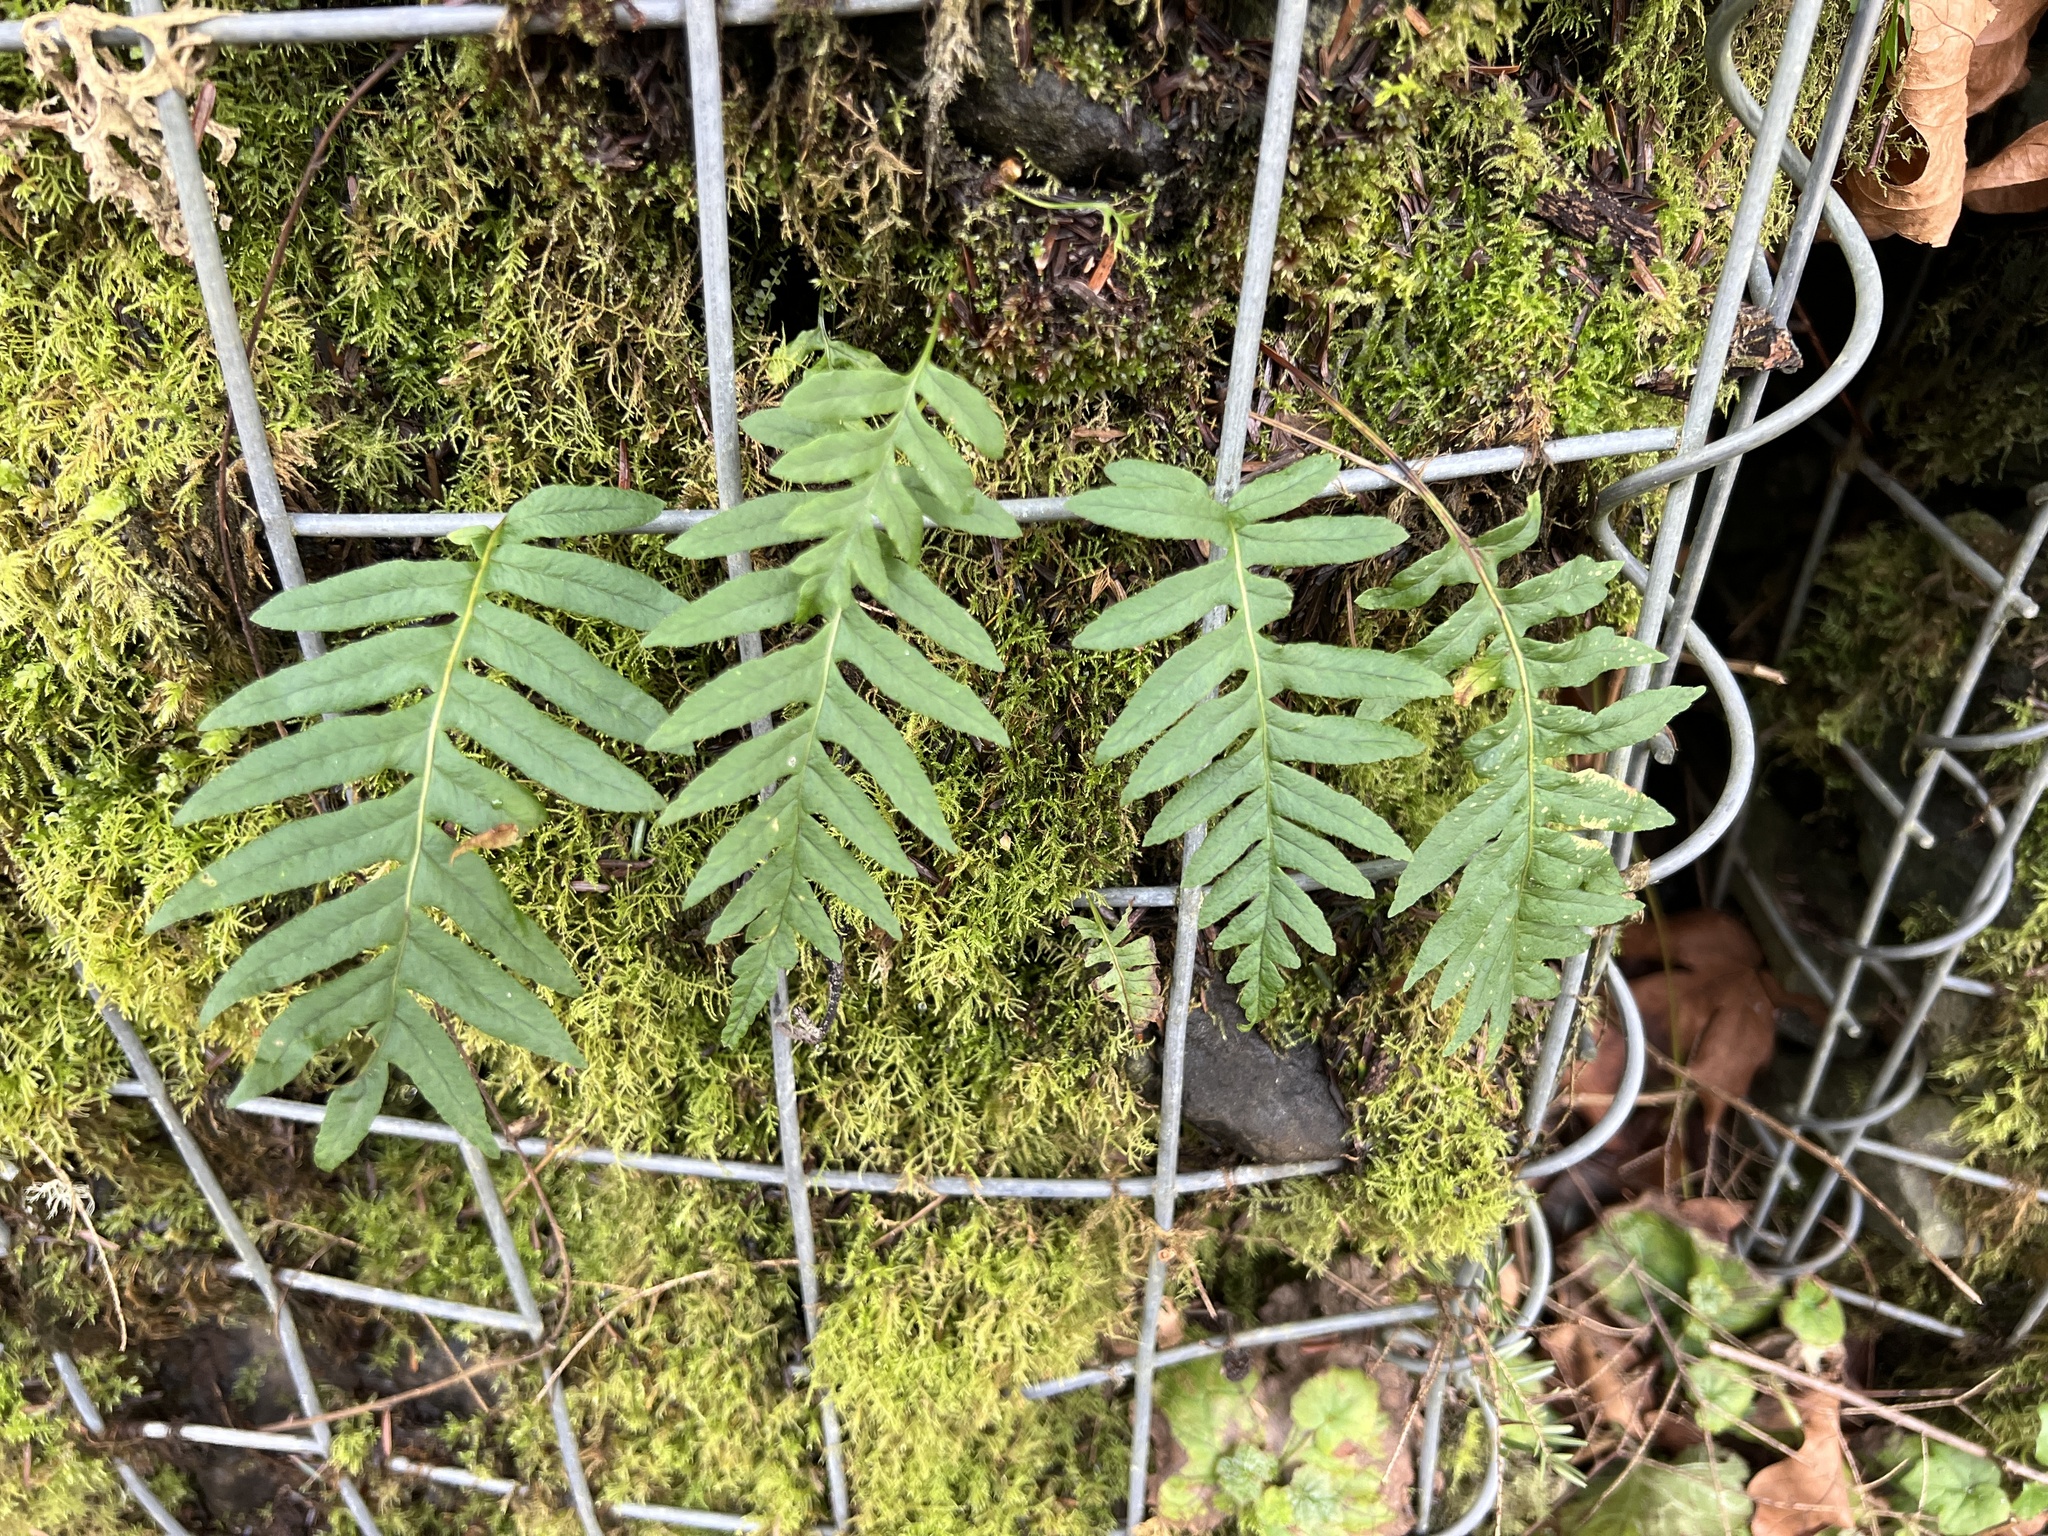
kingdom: Plantae
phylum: Tracheophyta
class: Polypodiopsida
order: Polypodiales
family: Polypodiaceae
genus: Polypodium
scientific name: Polypodium glycyrrhiza
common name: Licorice fern
